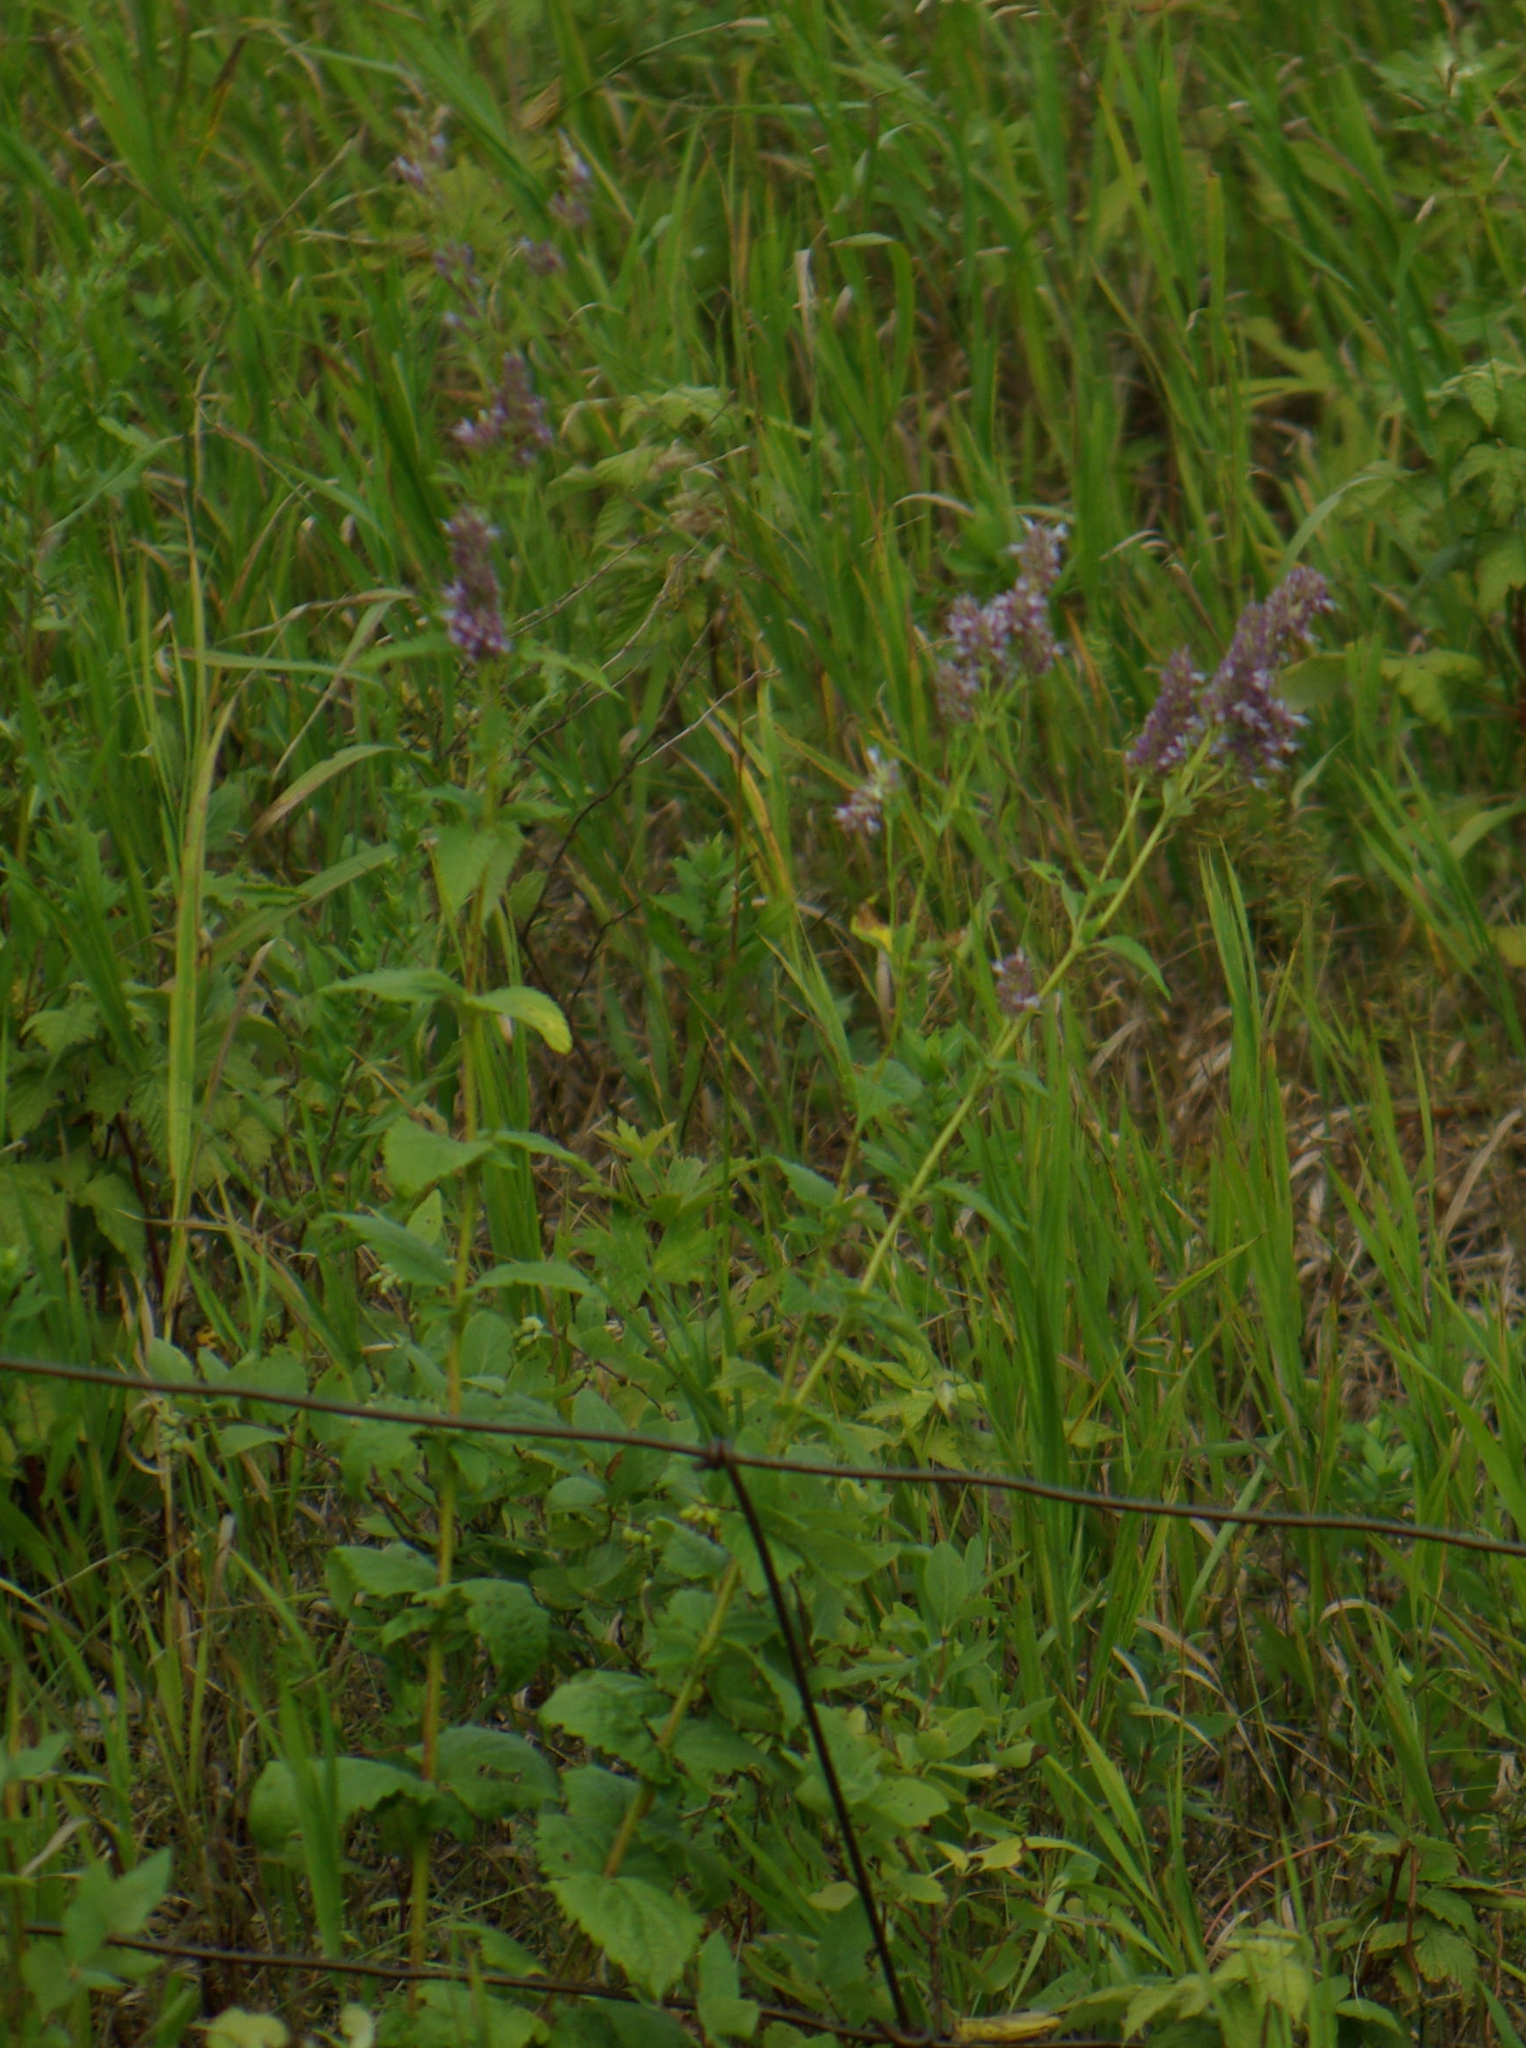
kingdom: Plantae
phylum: Tracheophyta
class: Magnoliopsida
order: Lamiales
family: Lamiaceae
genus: Agastache
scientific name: Agastache foeniculum
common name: Anise hyssop
